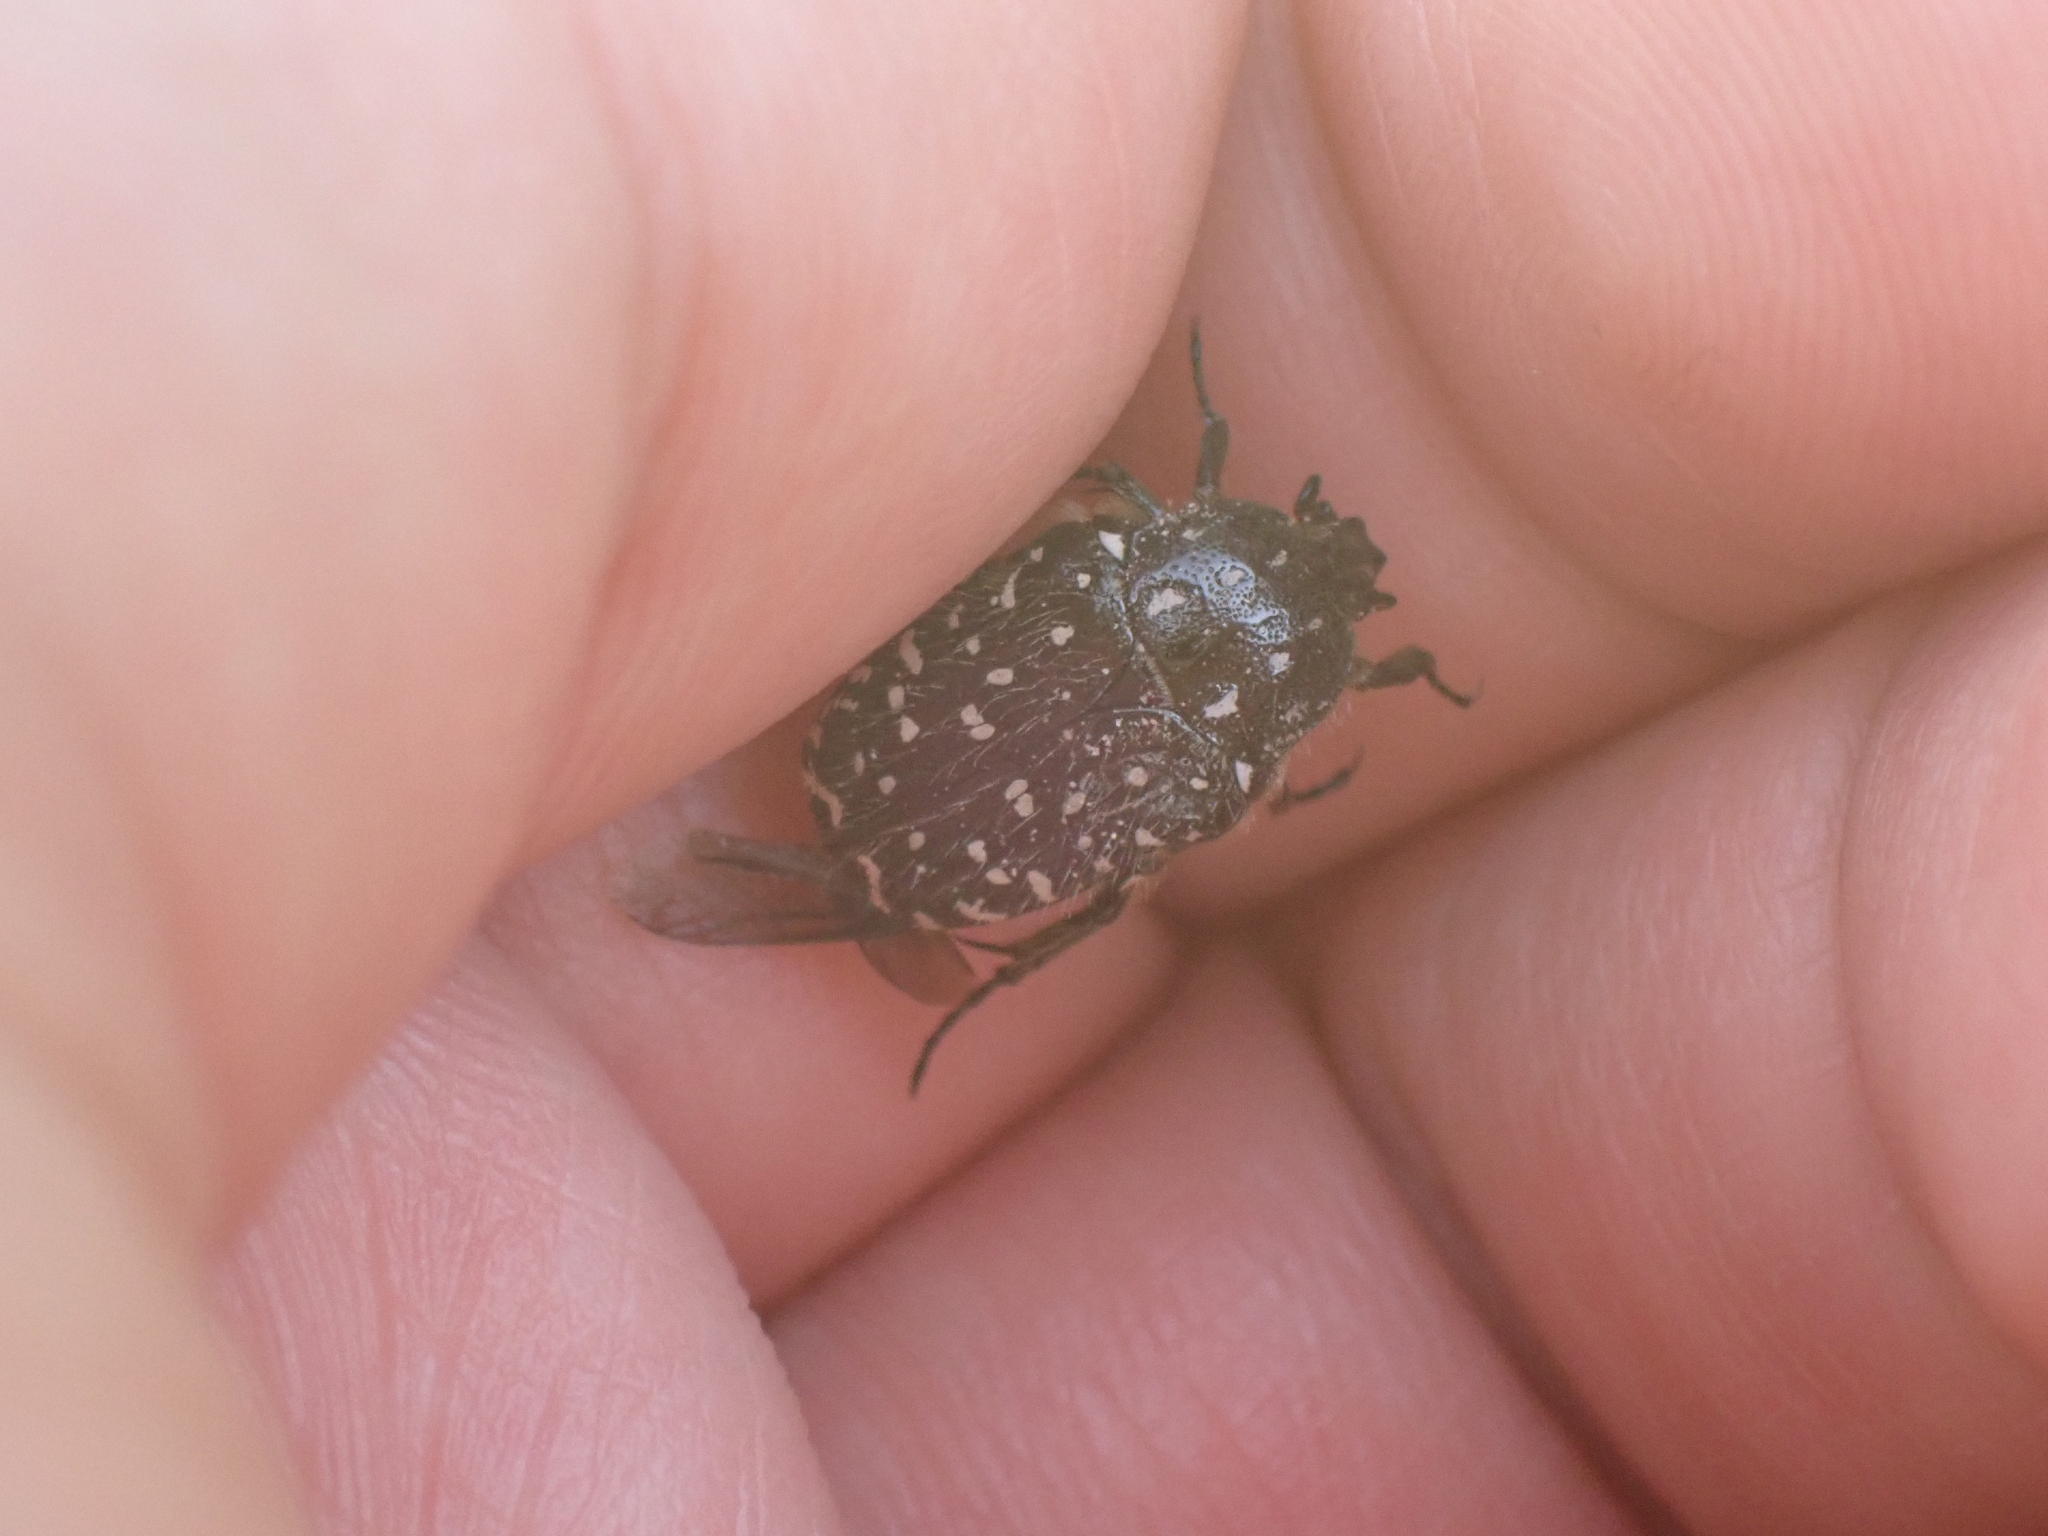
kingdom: Animalia
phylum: Arthropoda
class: Insecta
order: Coleoptera
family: Scarabaeidae
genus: Oxythyrea
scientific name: Oxythyrea funesta
